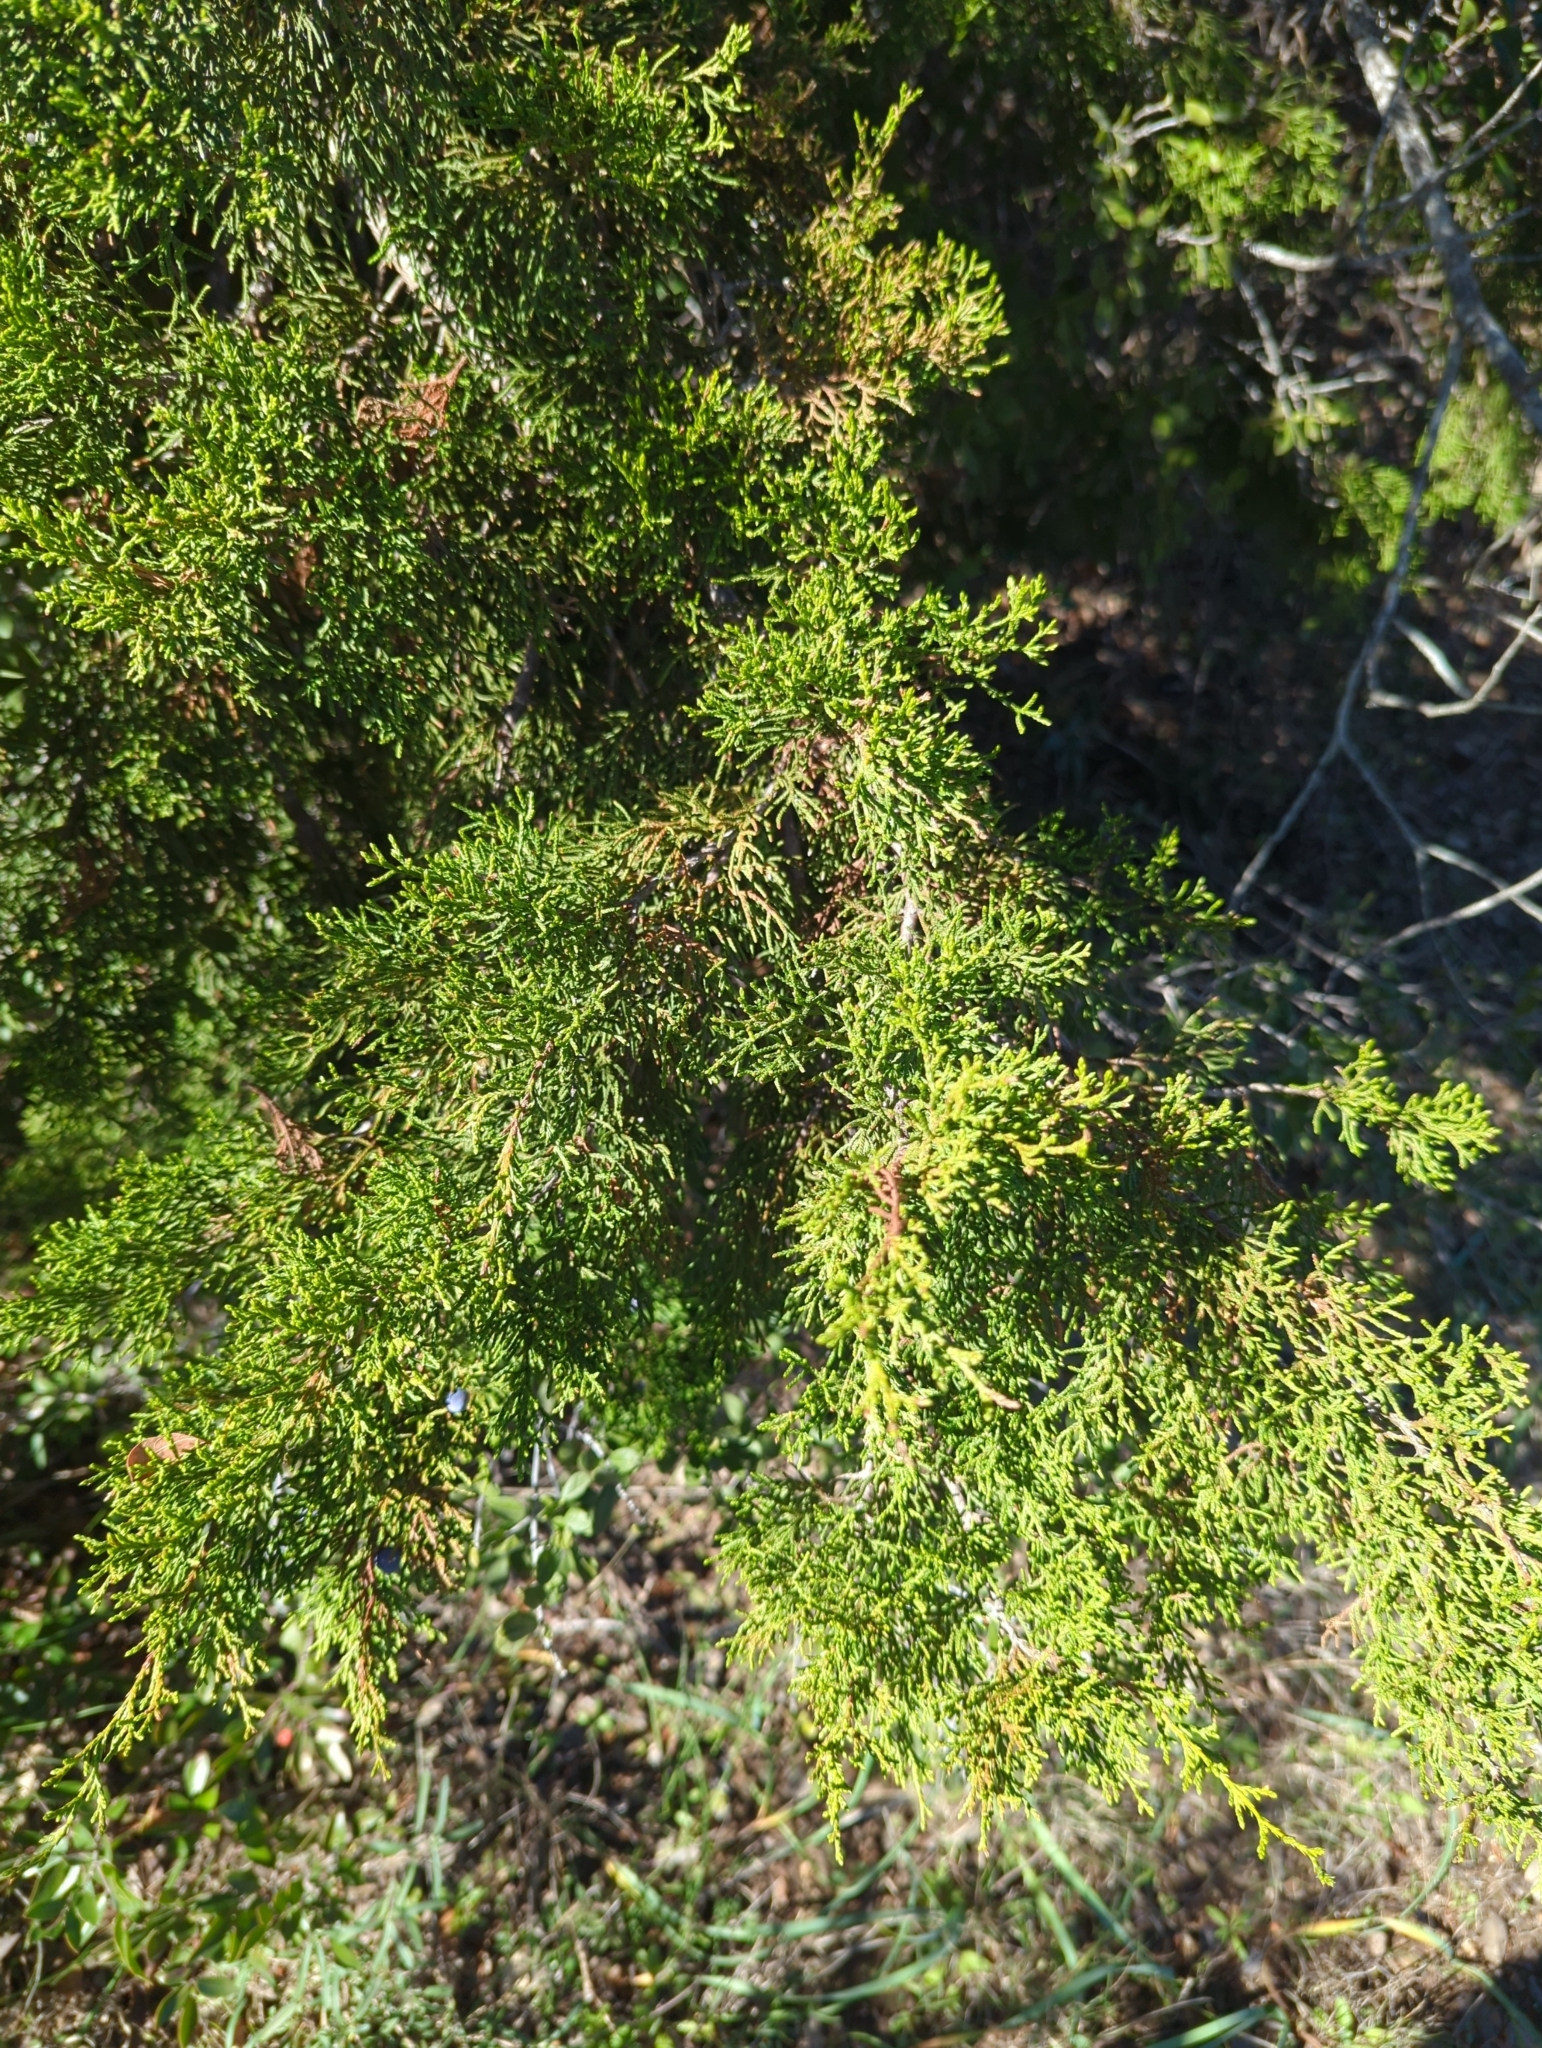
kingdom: Plantae
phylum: Tracheophyta
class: Pinopsida
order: Pinales
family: Cupressaceae
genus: Juniperus
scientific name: Juniperus ashei
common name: Mexican juniper
